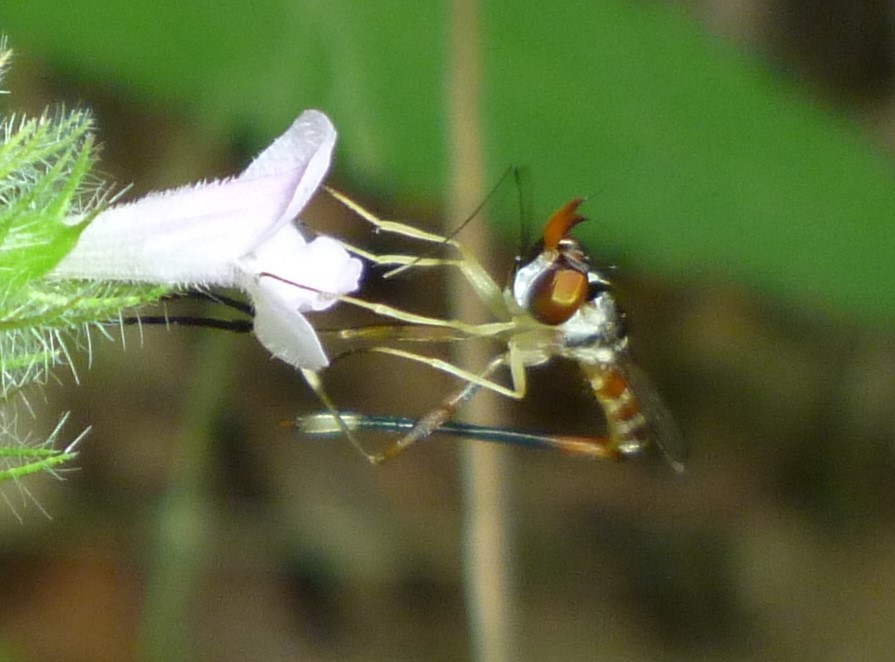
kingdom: Animalia
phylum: Arthropoda
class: Insecta
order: Diptera
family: Conopidae
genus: Stylogaster
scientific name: Stylogaster neglecta
